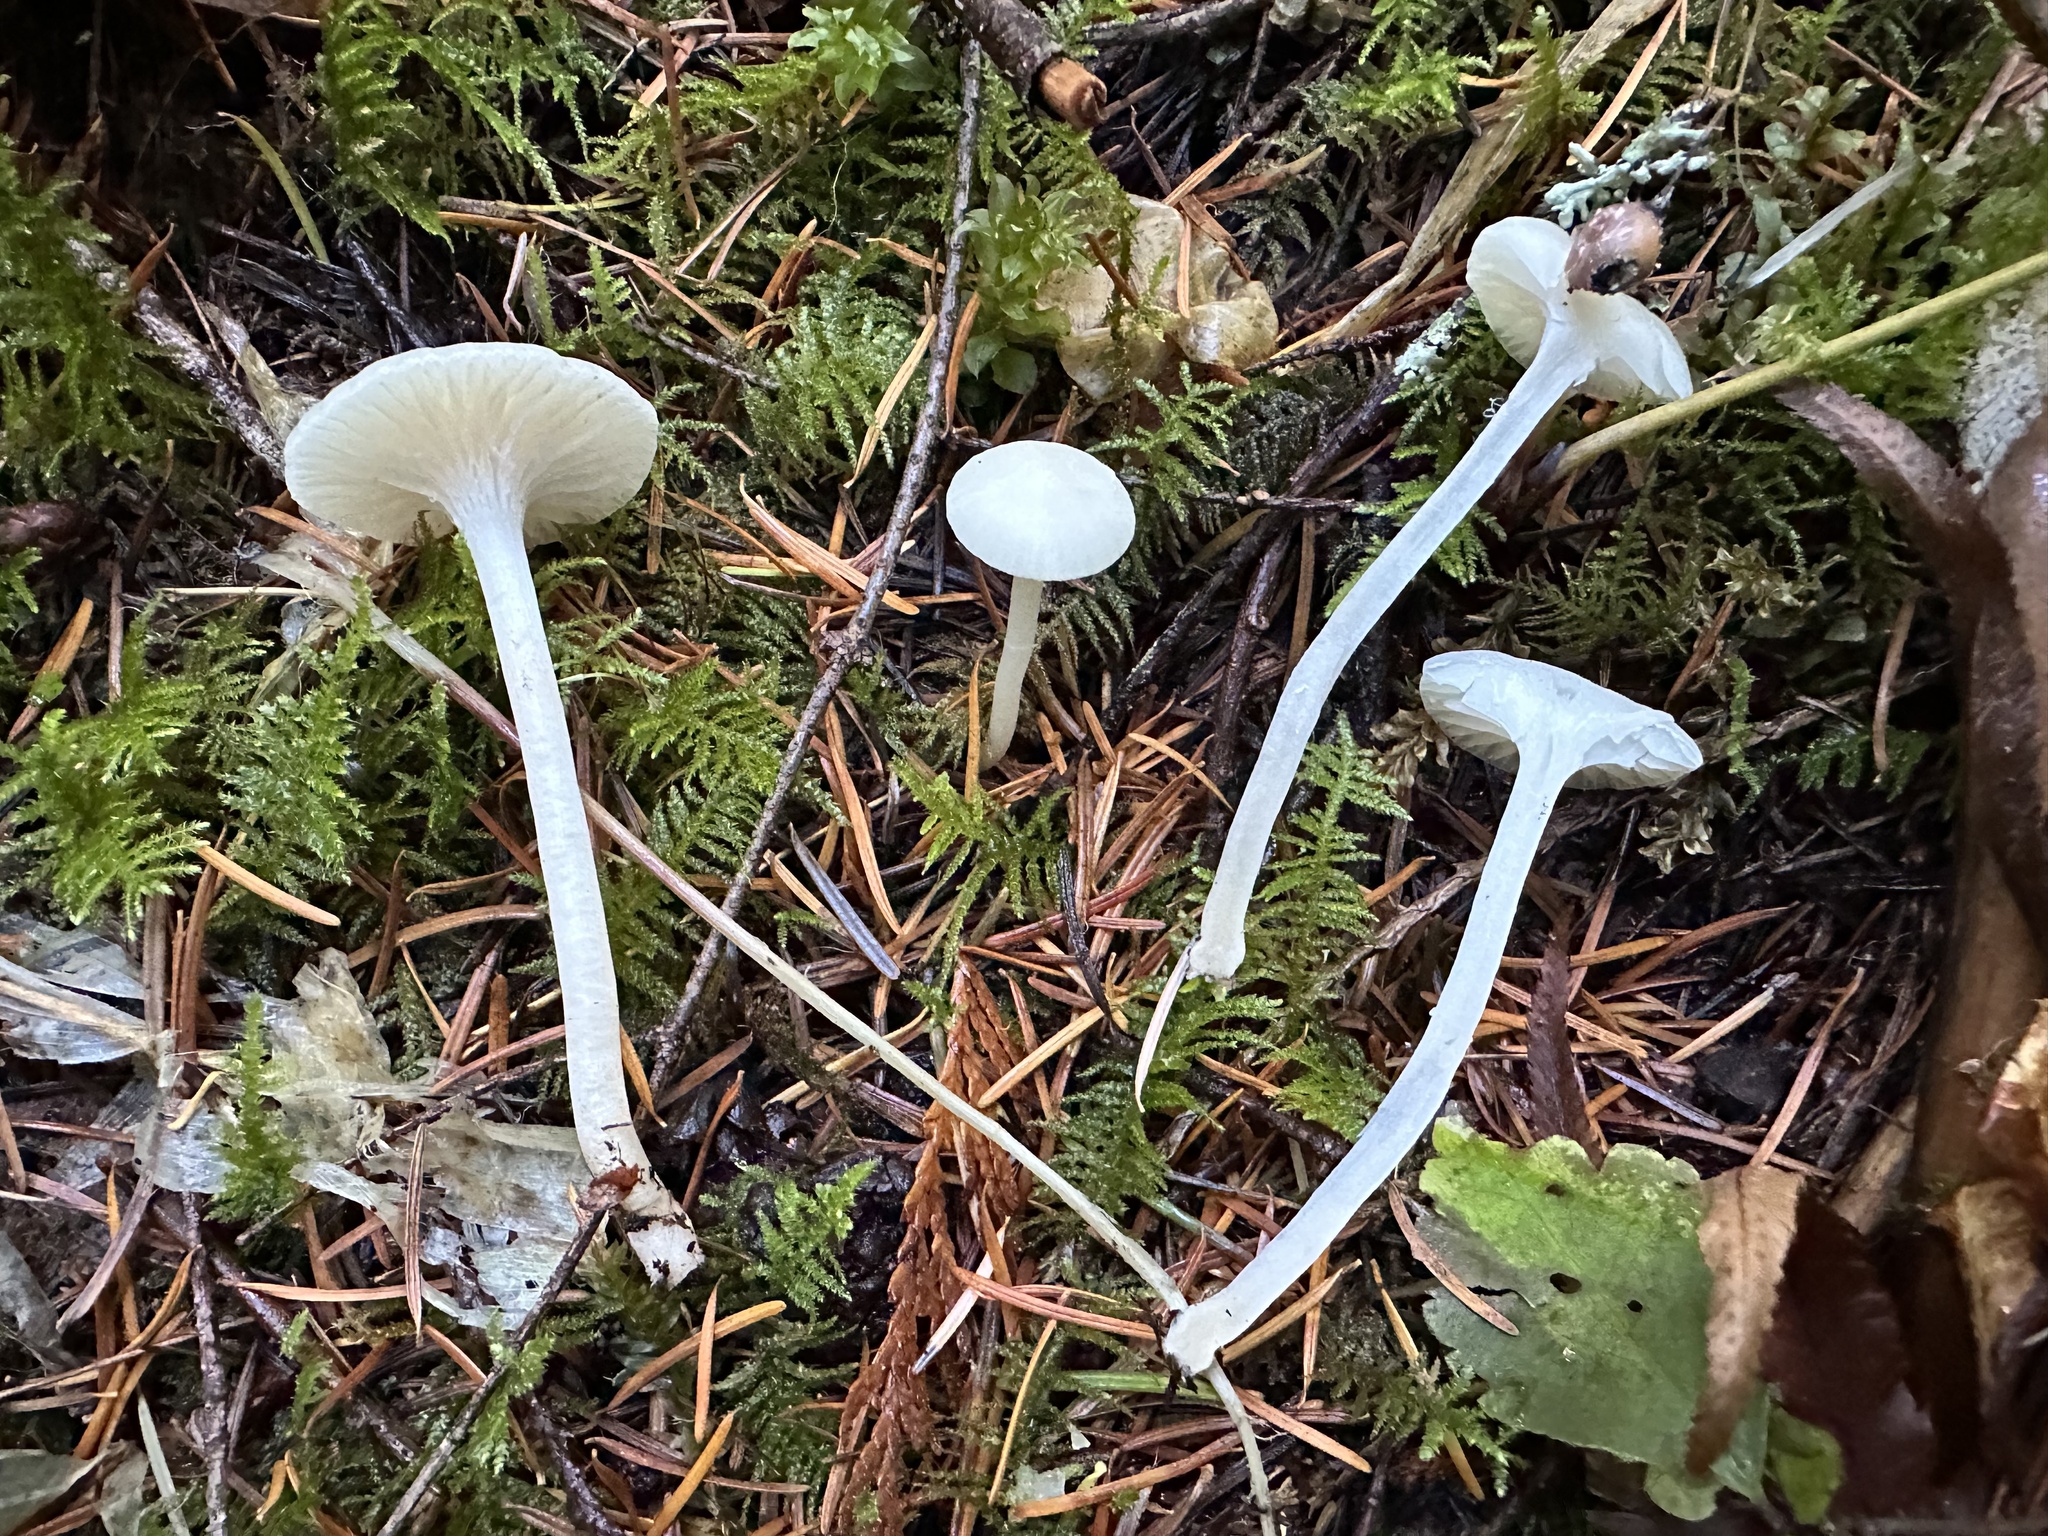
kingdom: Fungi
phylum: Basidiomycota
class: Agaricomycetes
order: Agaricales
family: Hygrophoraceae
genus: Cuphophyllus
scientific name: Cuphophyllus russocoriaceus
